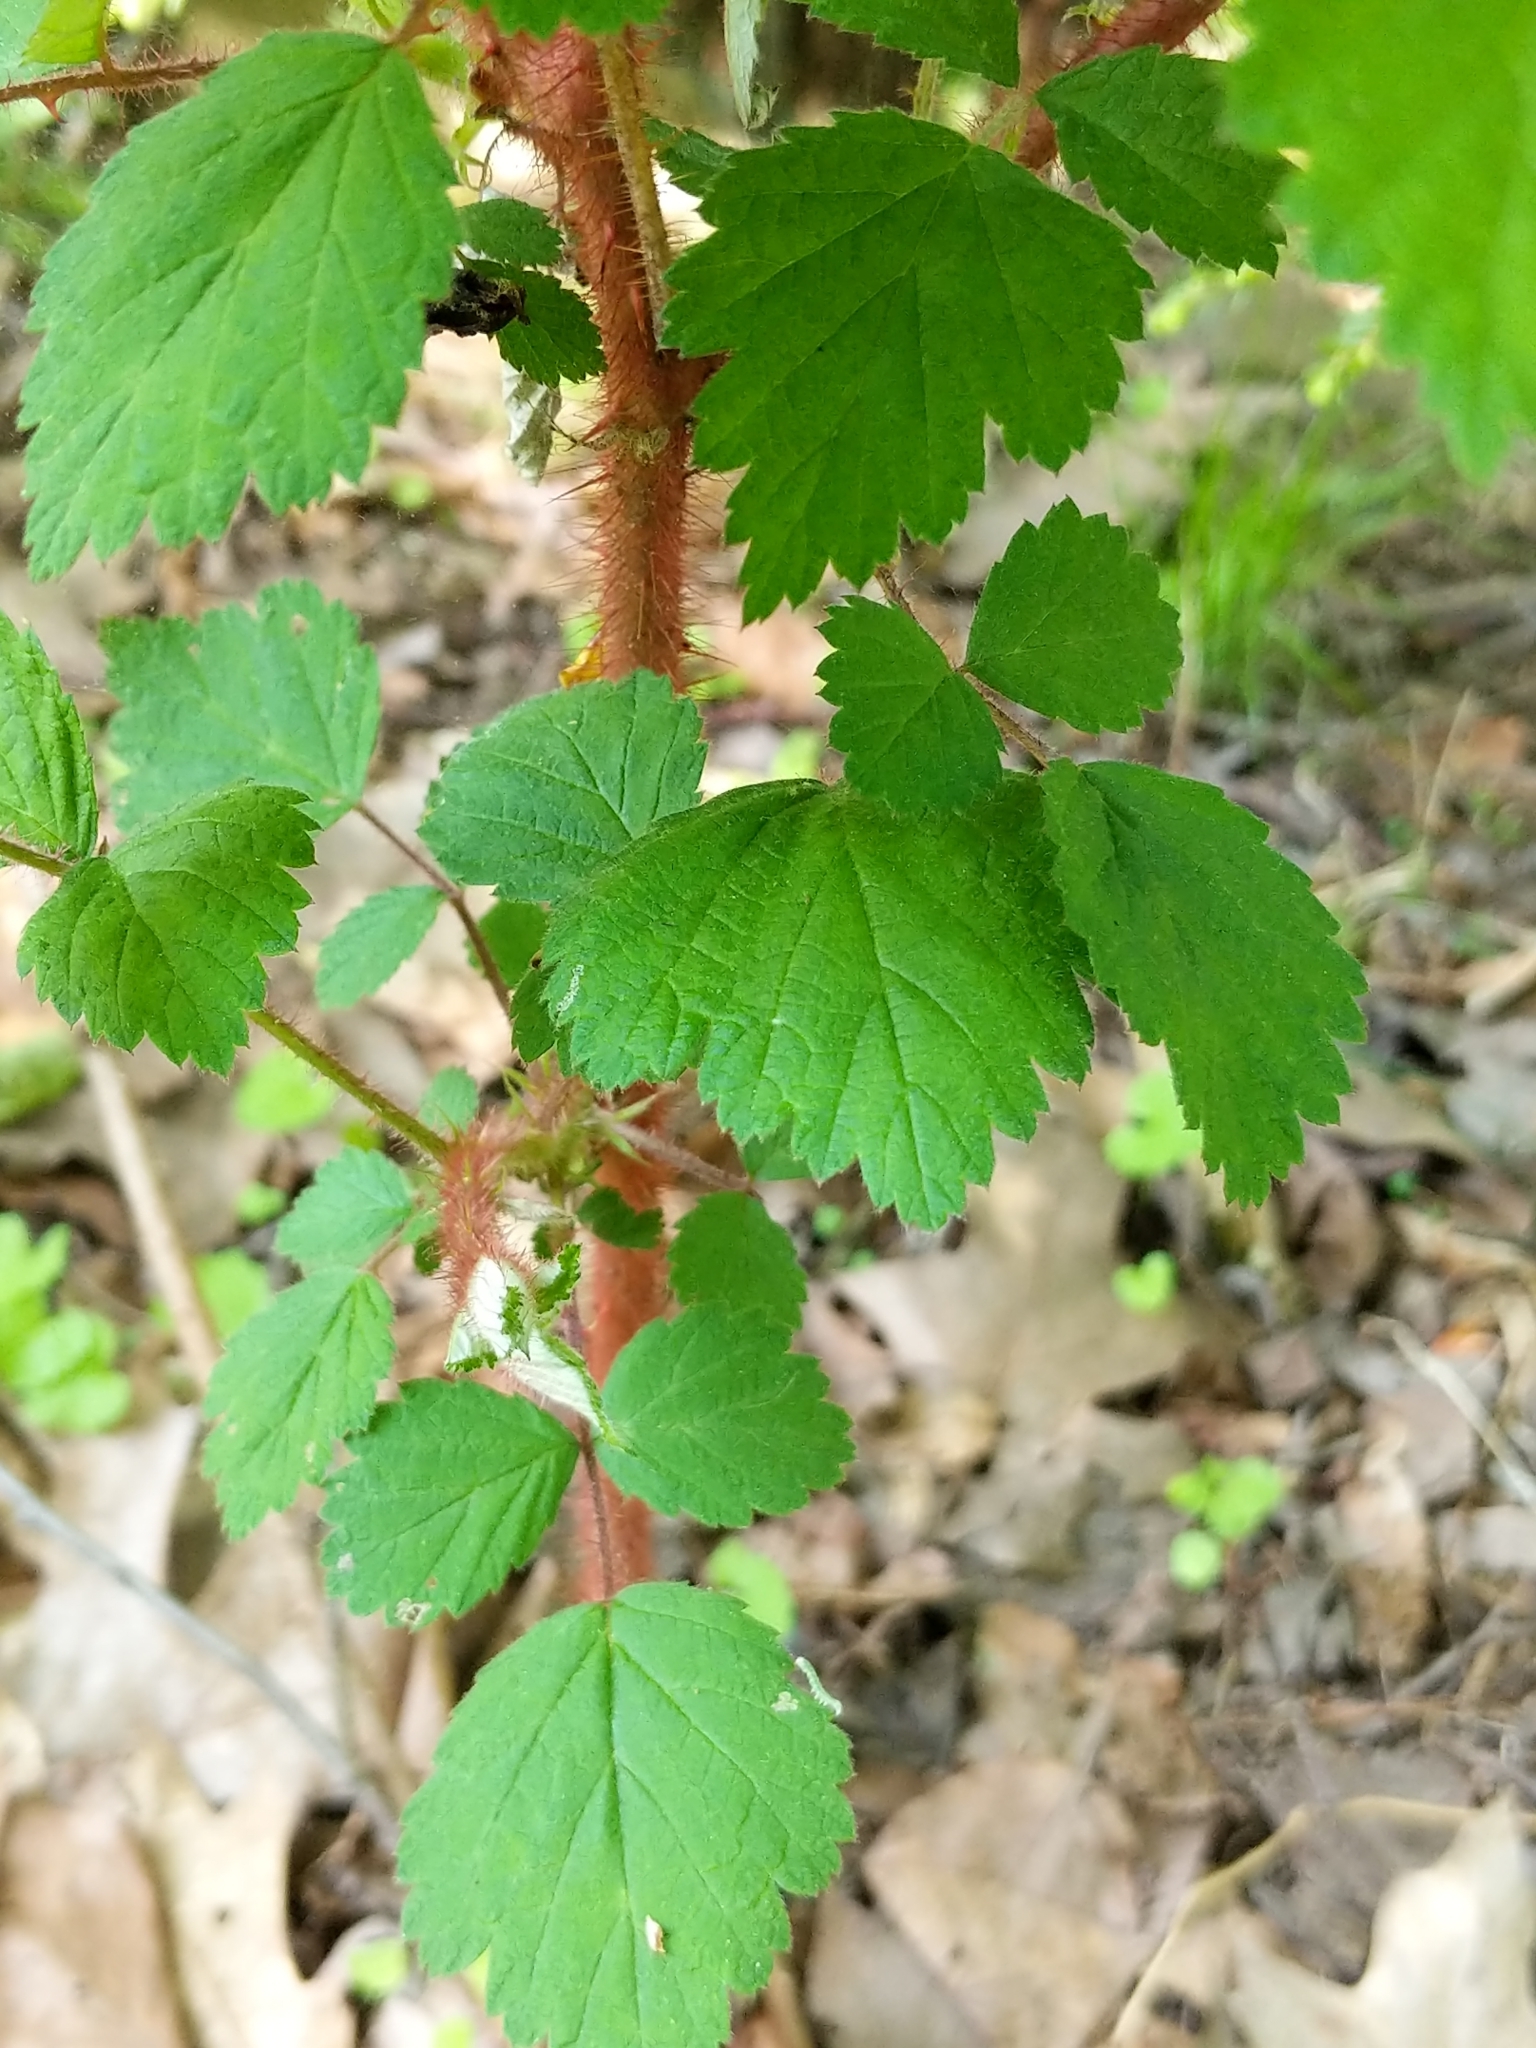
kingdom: Plantae
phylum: Tracheophyta
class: Magnoliopsida
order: Rosales
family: Rosaceae
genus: Rubus
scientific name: Rubus phoenicolasius
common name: Japanese wineberry
